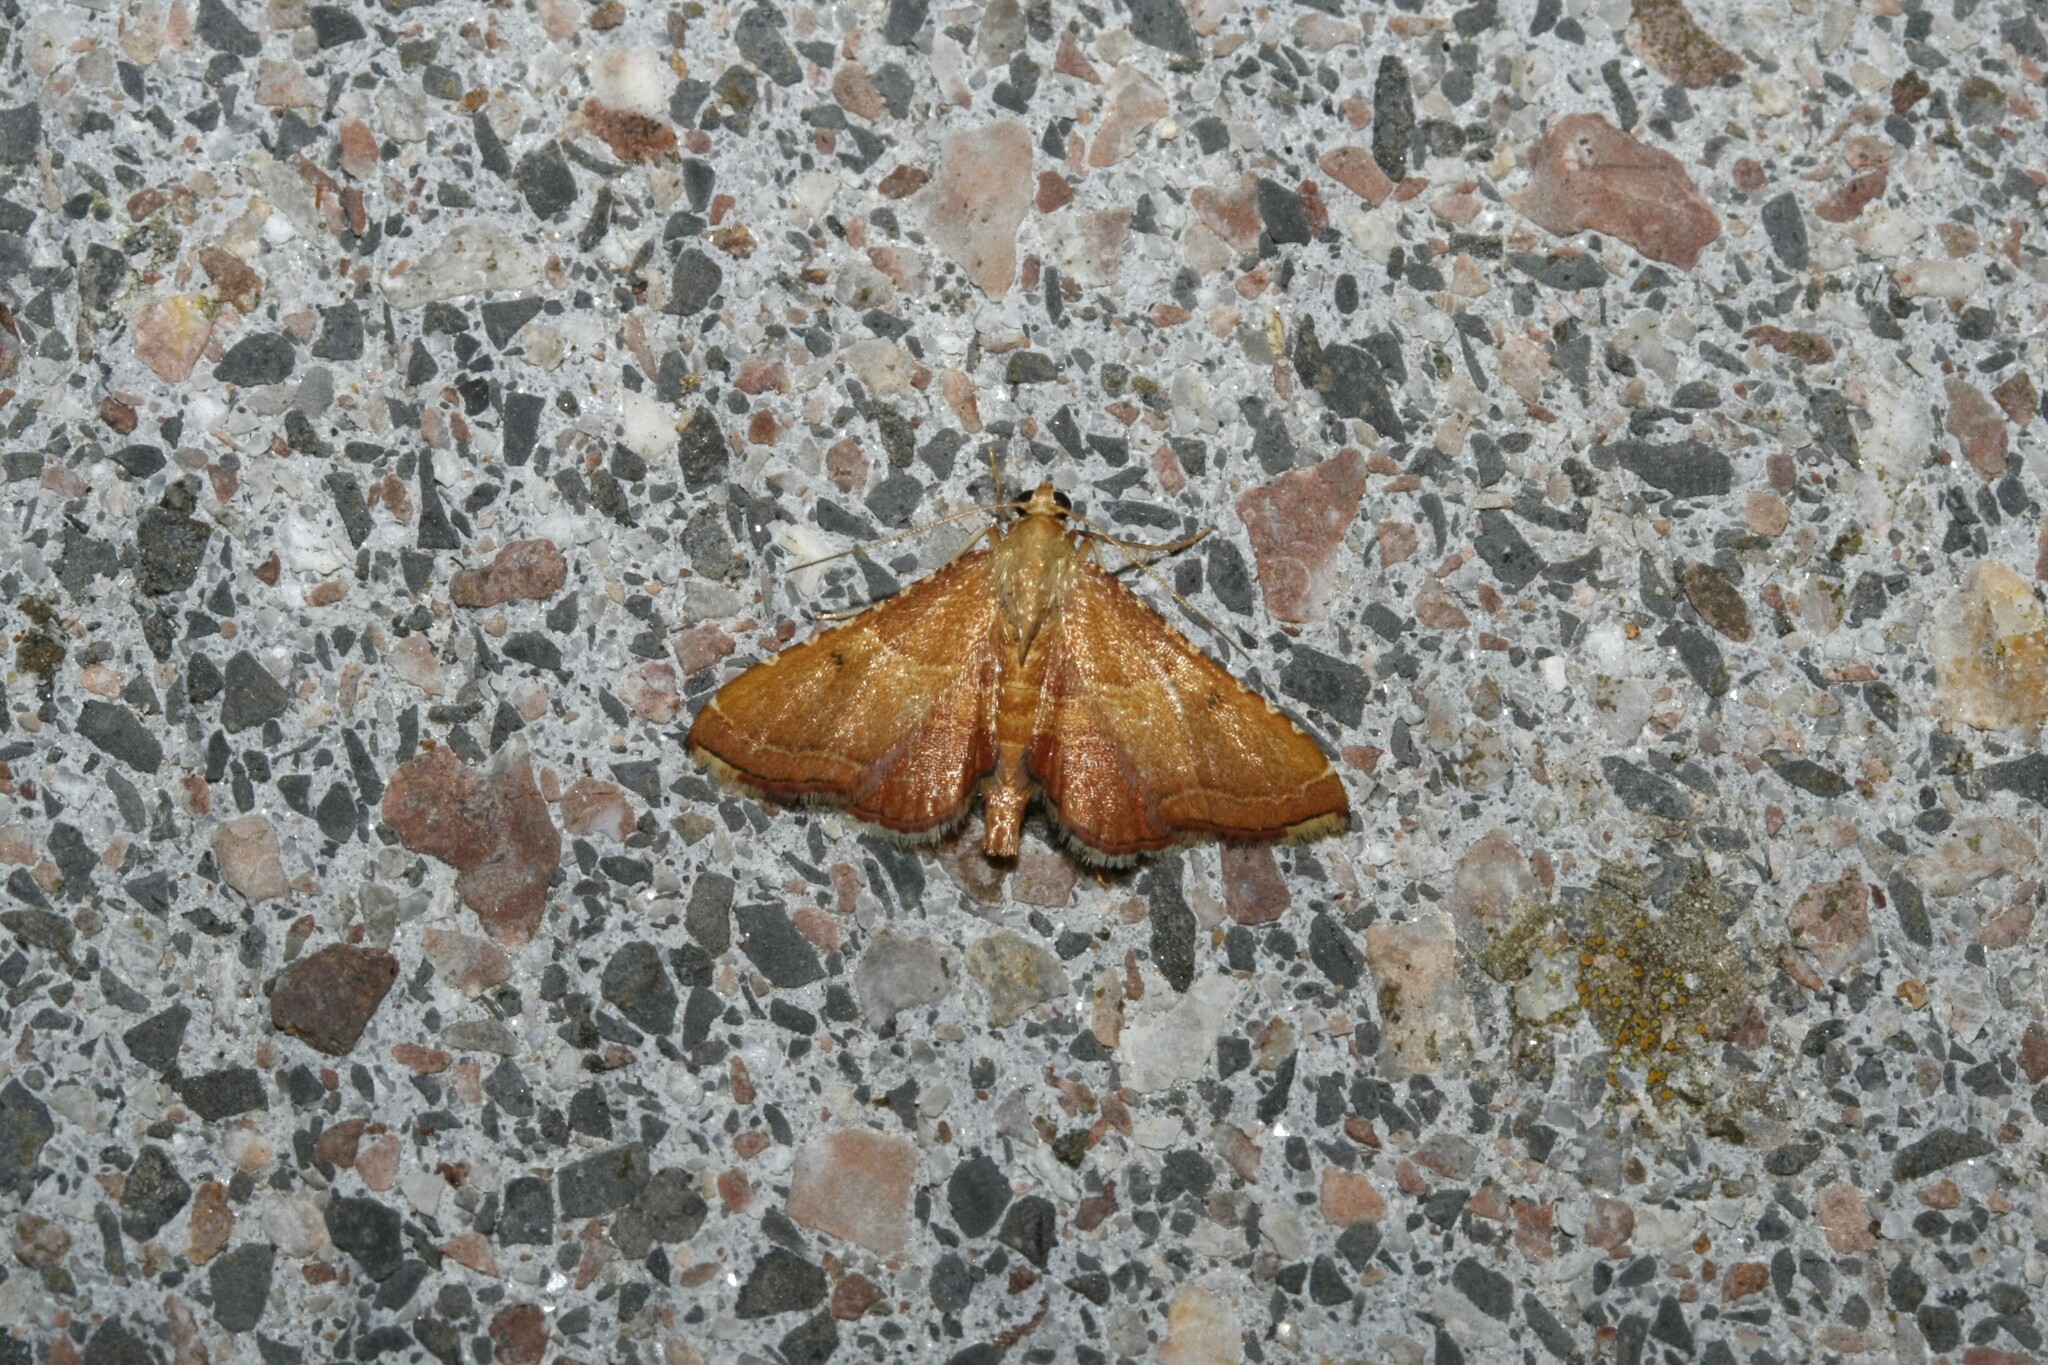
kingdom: Animalia
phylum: Arthropoda
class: Insecta
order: Lepidoptera
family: Pyralidae
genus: Endotricha
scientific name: Endotricha flammealis
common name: Rosy tabby
